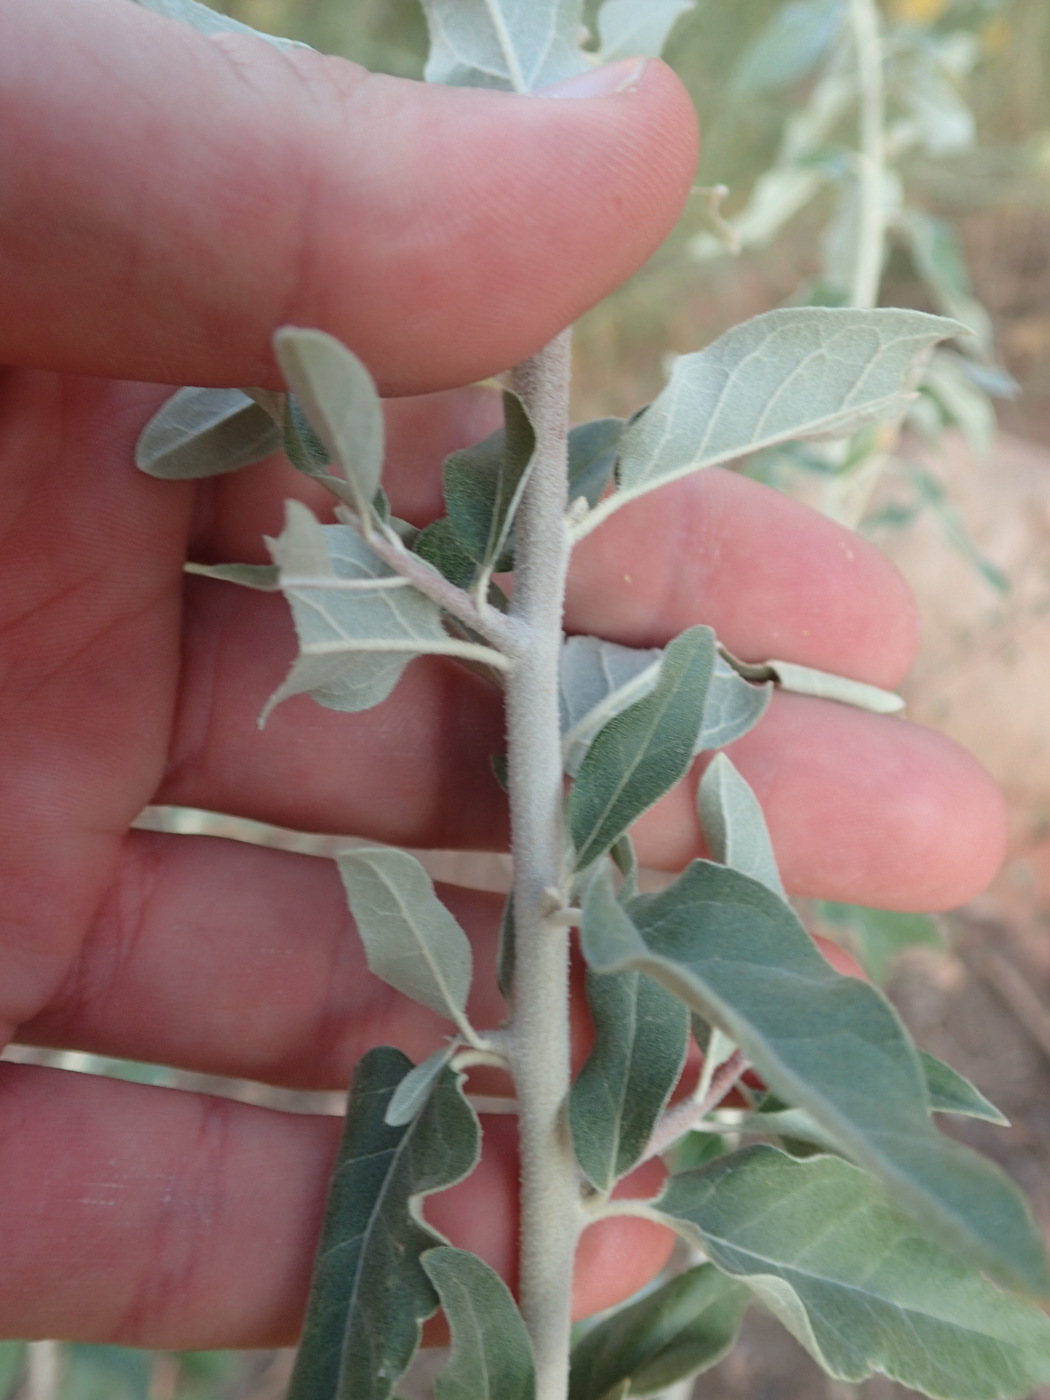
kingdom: Plantae
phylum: Tracheophyta
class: Magnoliopsida
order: Rosales
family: Elaeagnaceae
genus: Elaeagnus
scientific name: Elaeagnus angustifolia
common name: Russian olive
